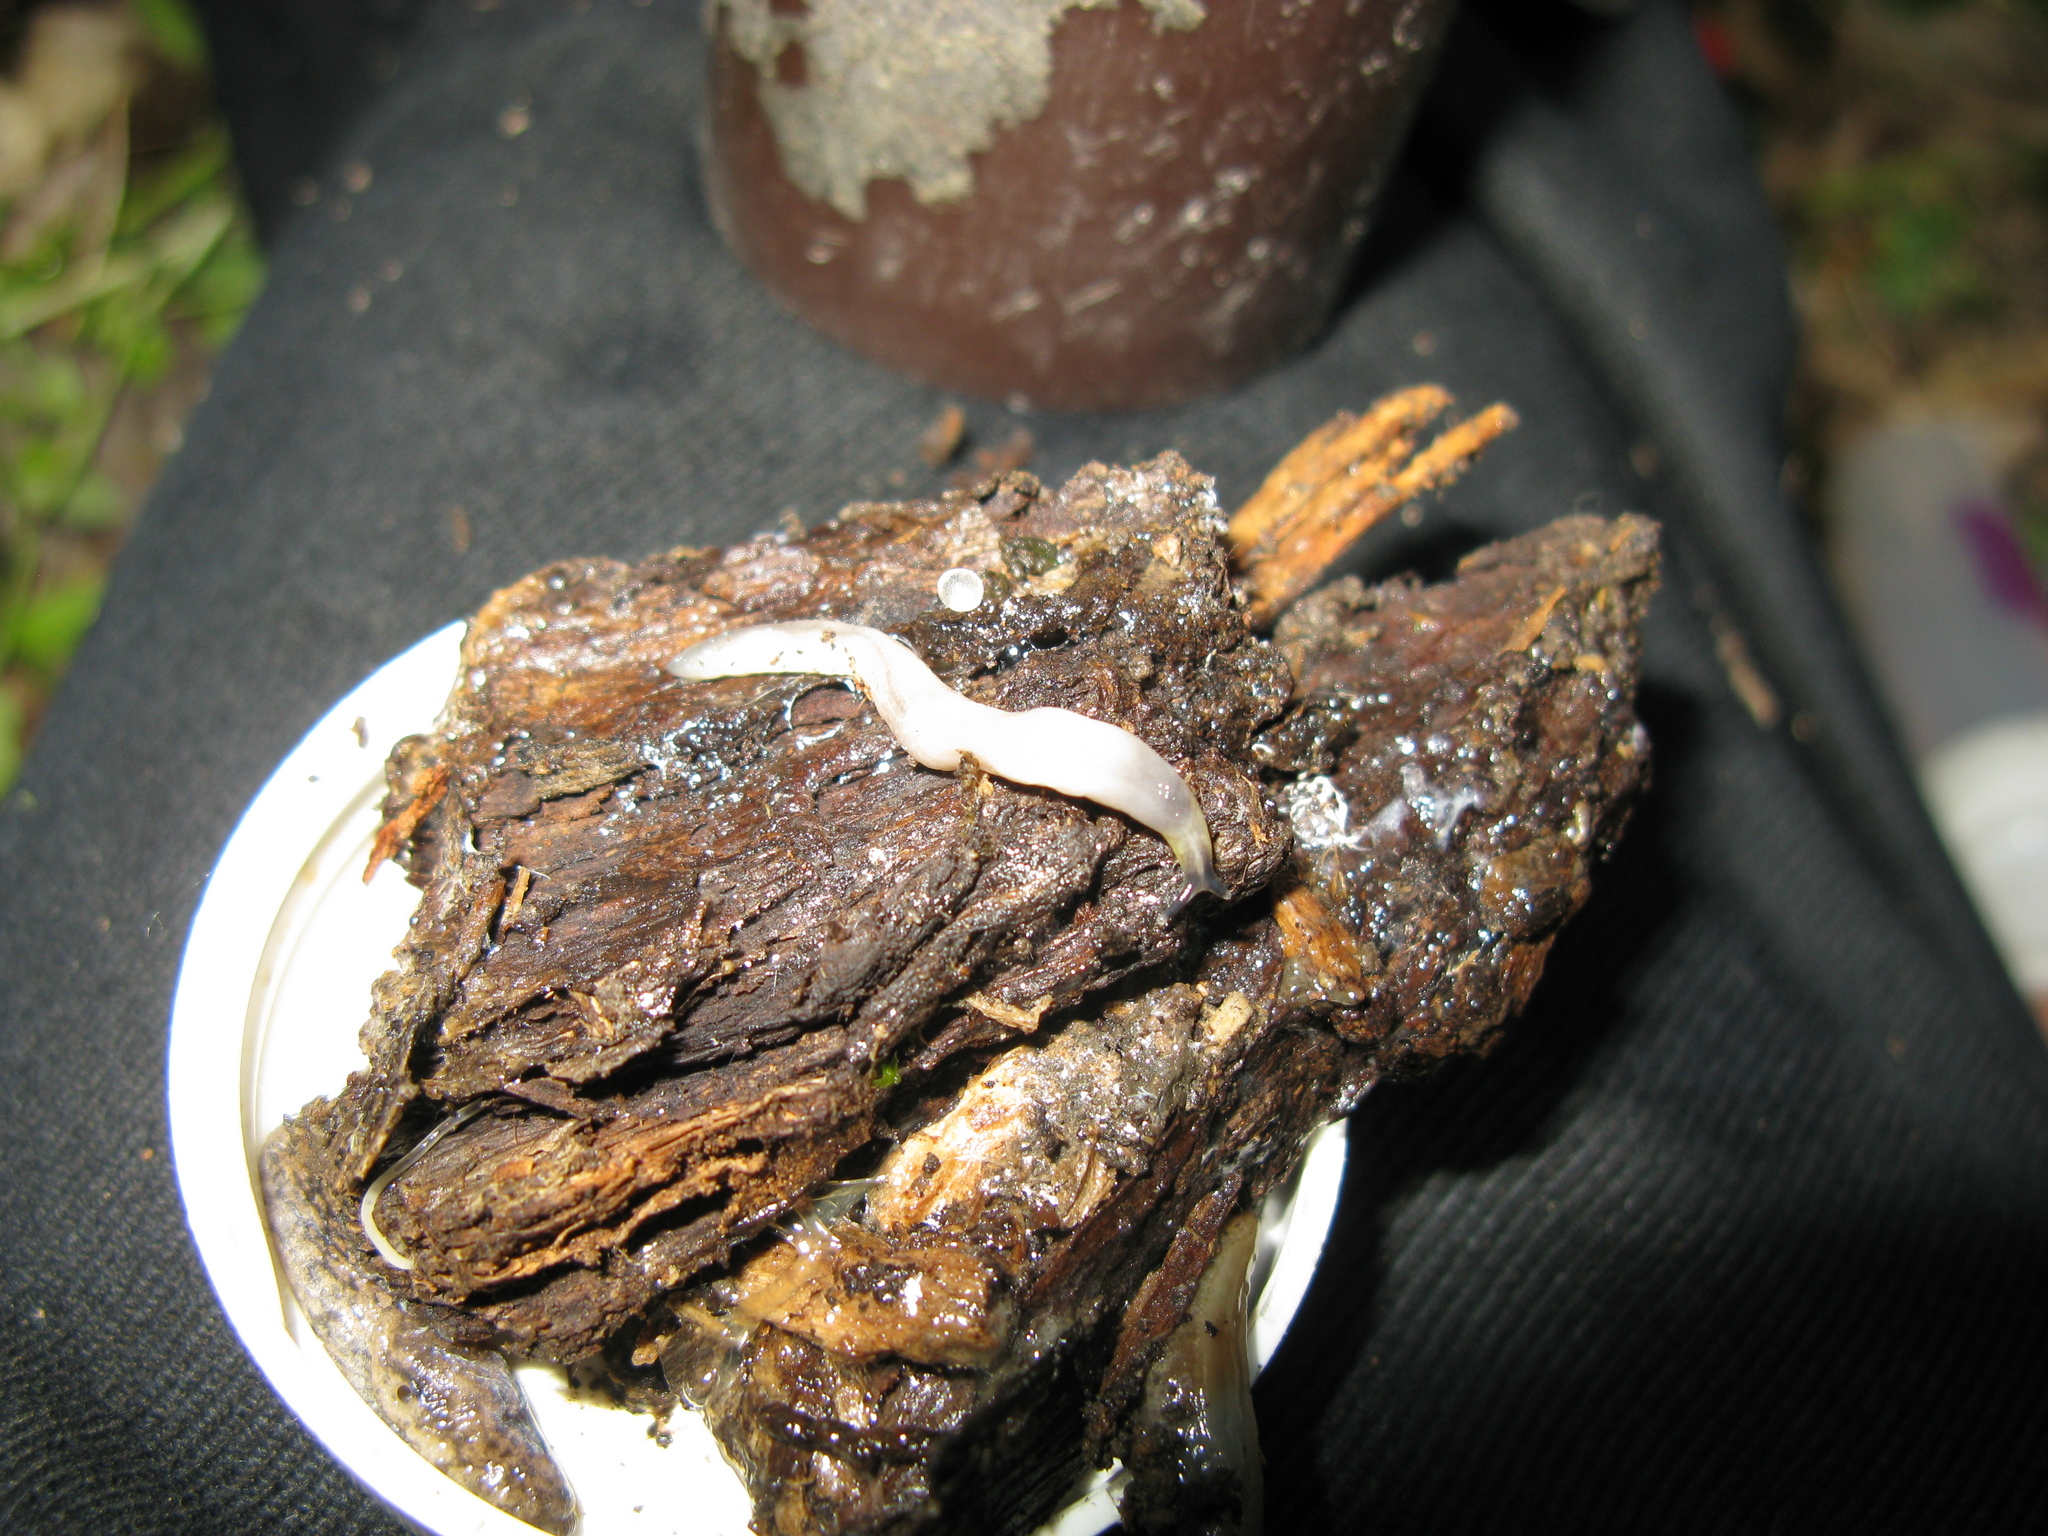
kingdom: Animalia
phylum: Mollusca
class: Gastropoda
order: Stylommatophora
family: Boettgerillidae
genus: Boettgerilla
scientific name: Boettgerilla pallens
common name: Worm slug
